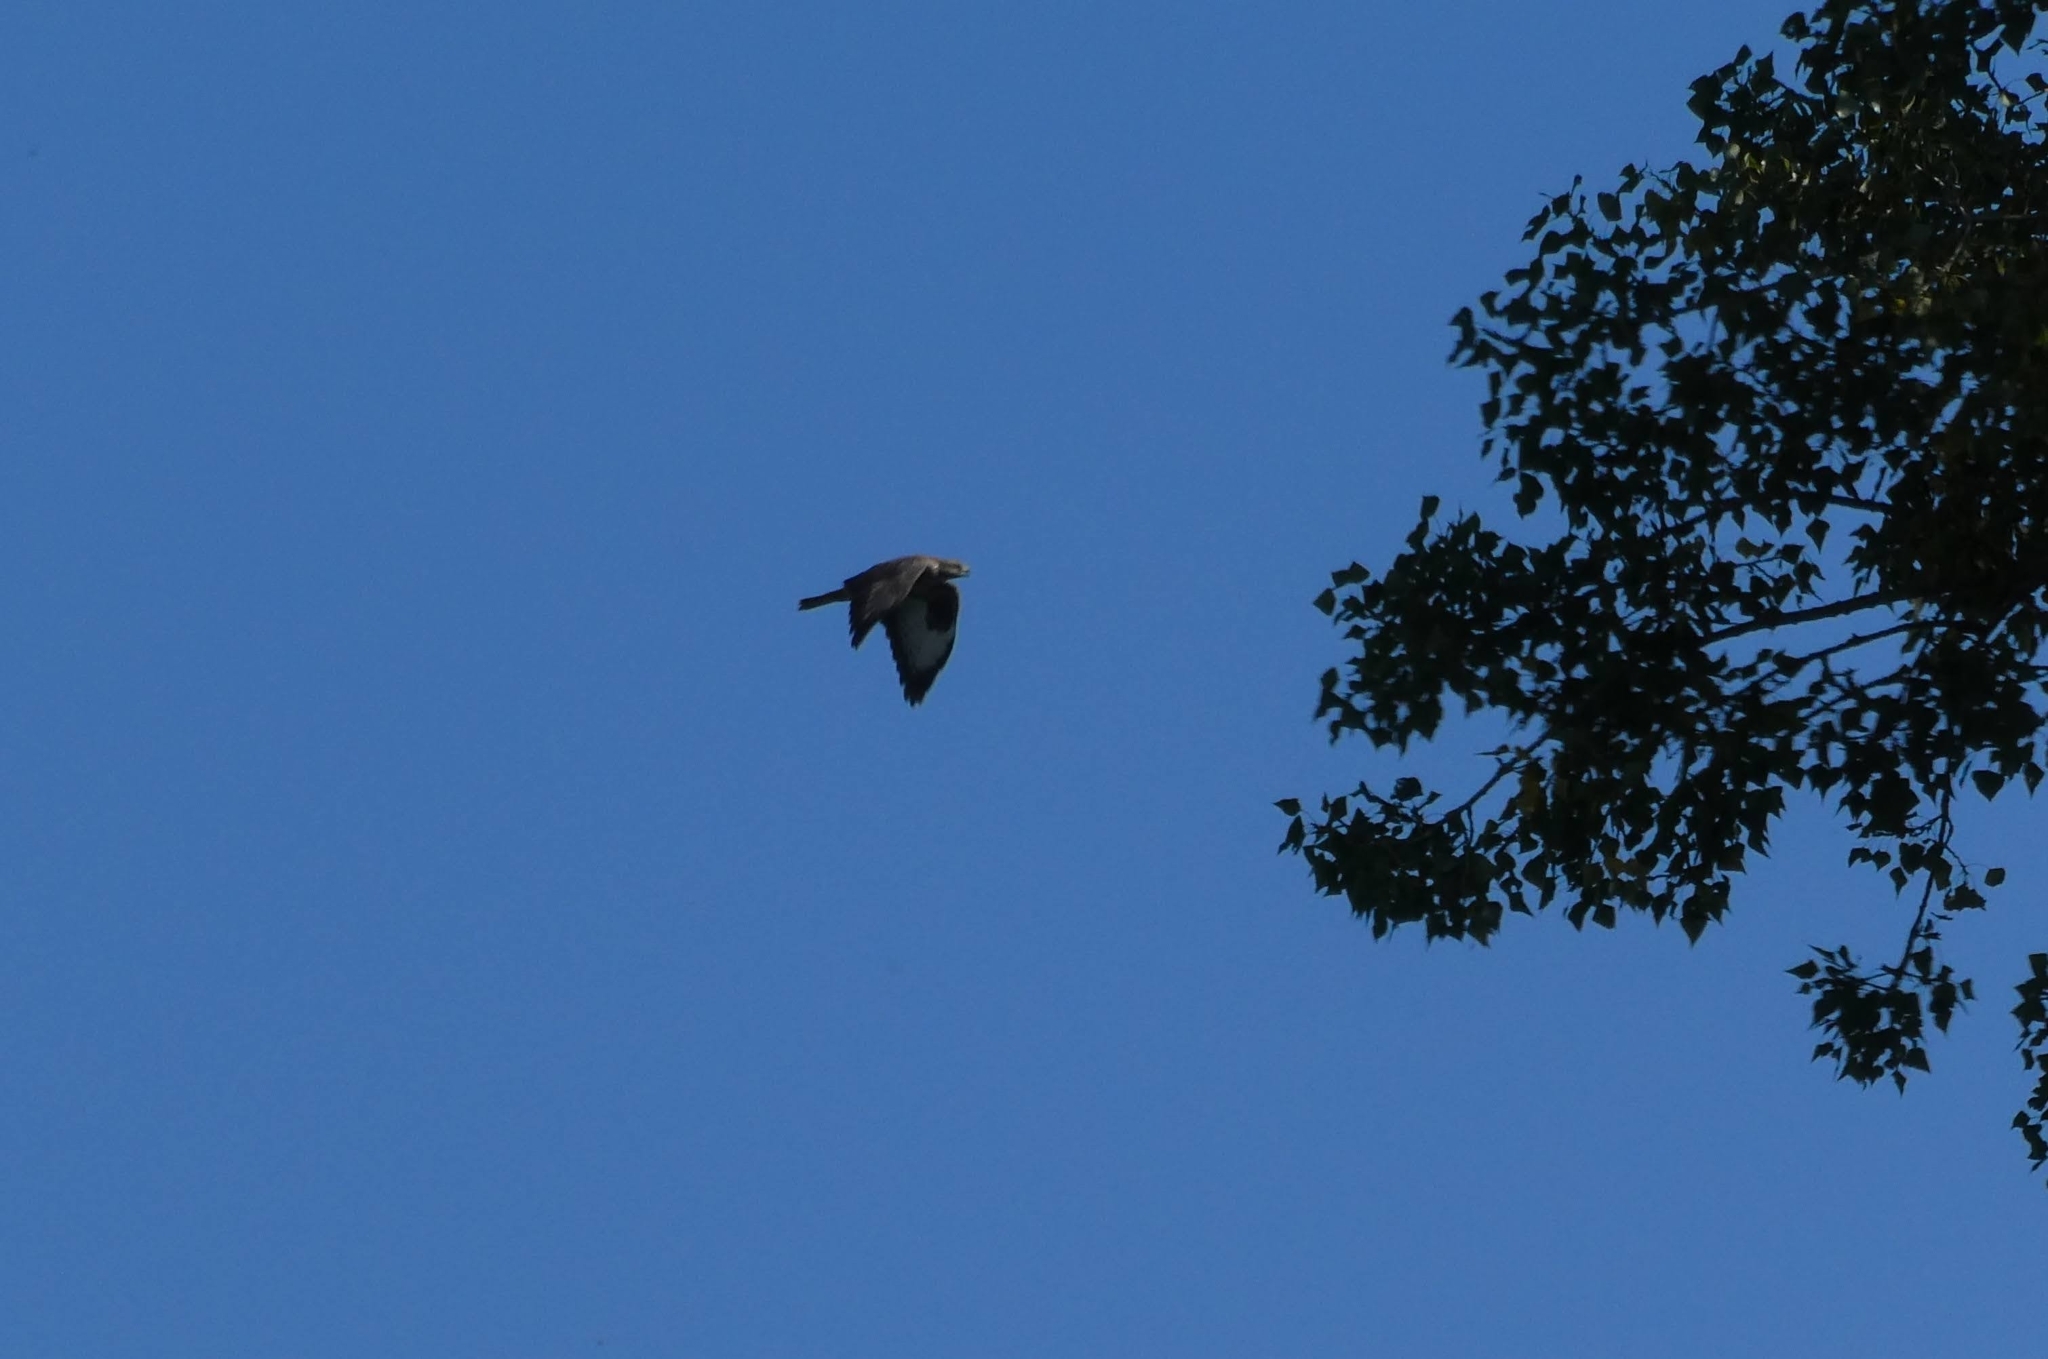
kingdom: Animalia
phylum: Chordata
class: Aves
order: Accipitriformes
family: Accipitridae
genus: Buteo
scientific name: Buteo buteo
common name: Common buzzard
